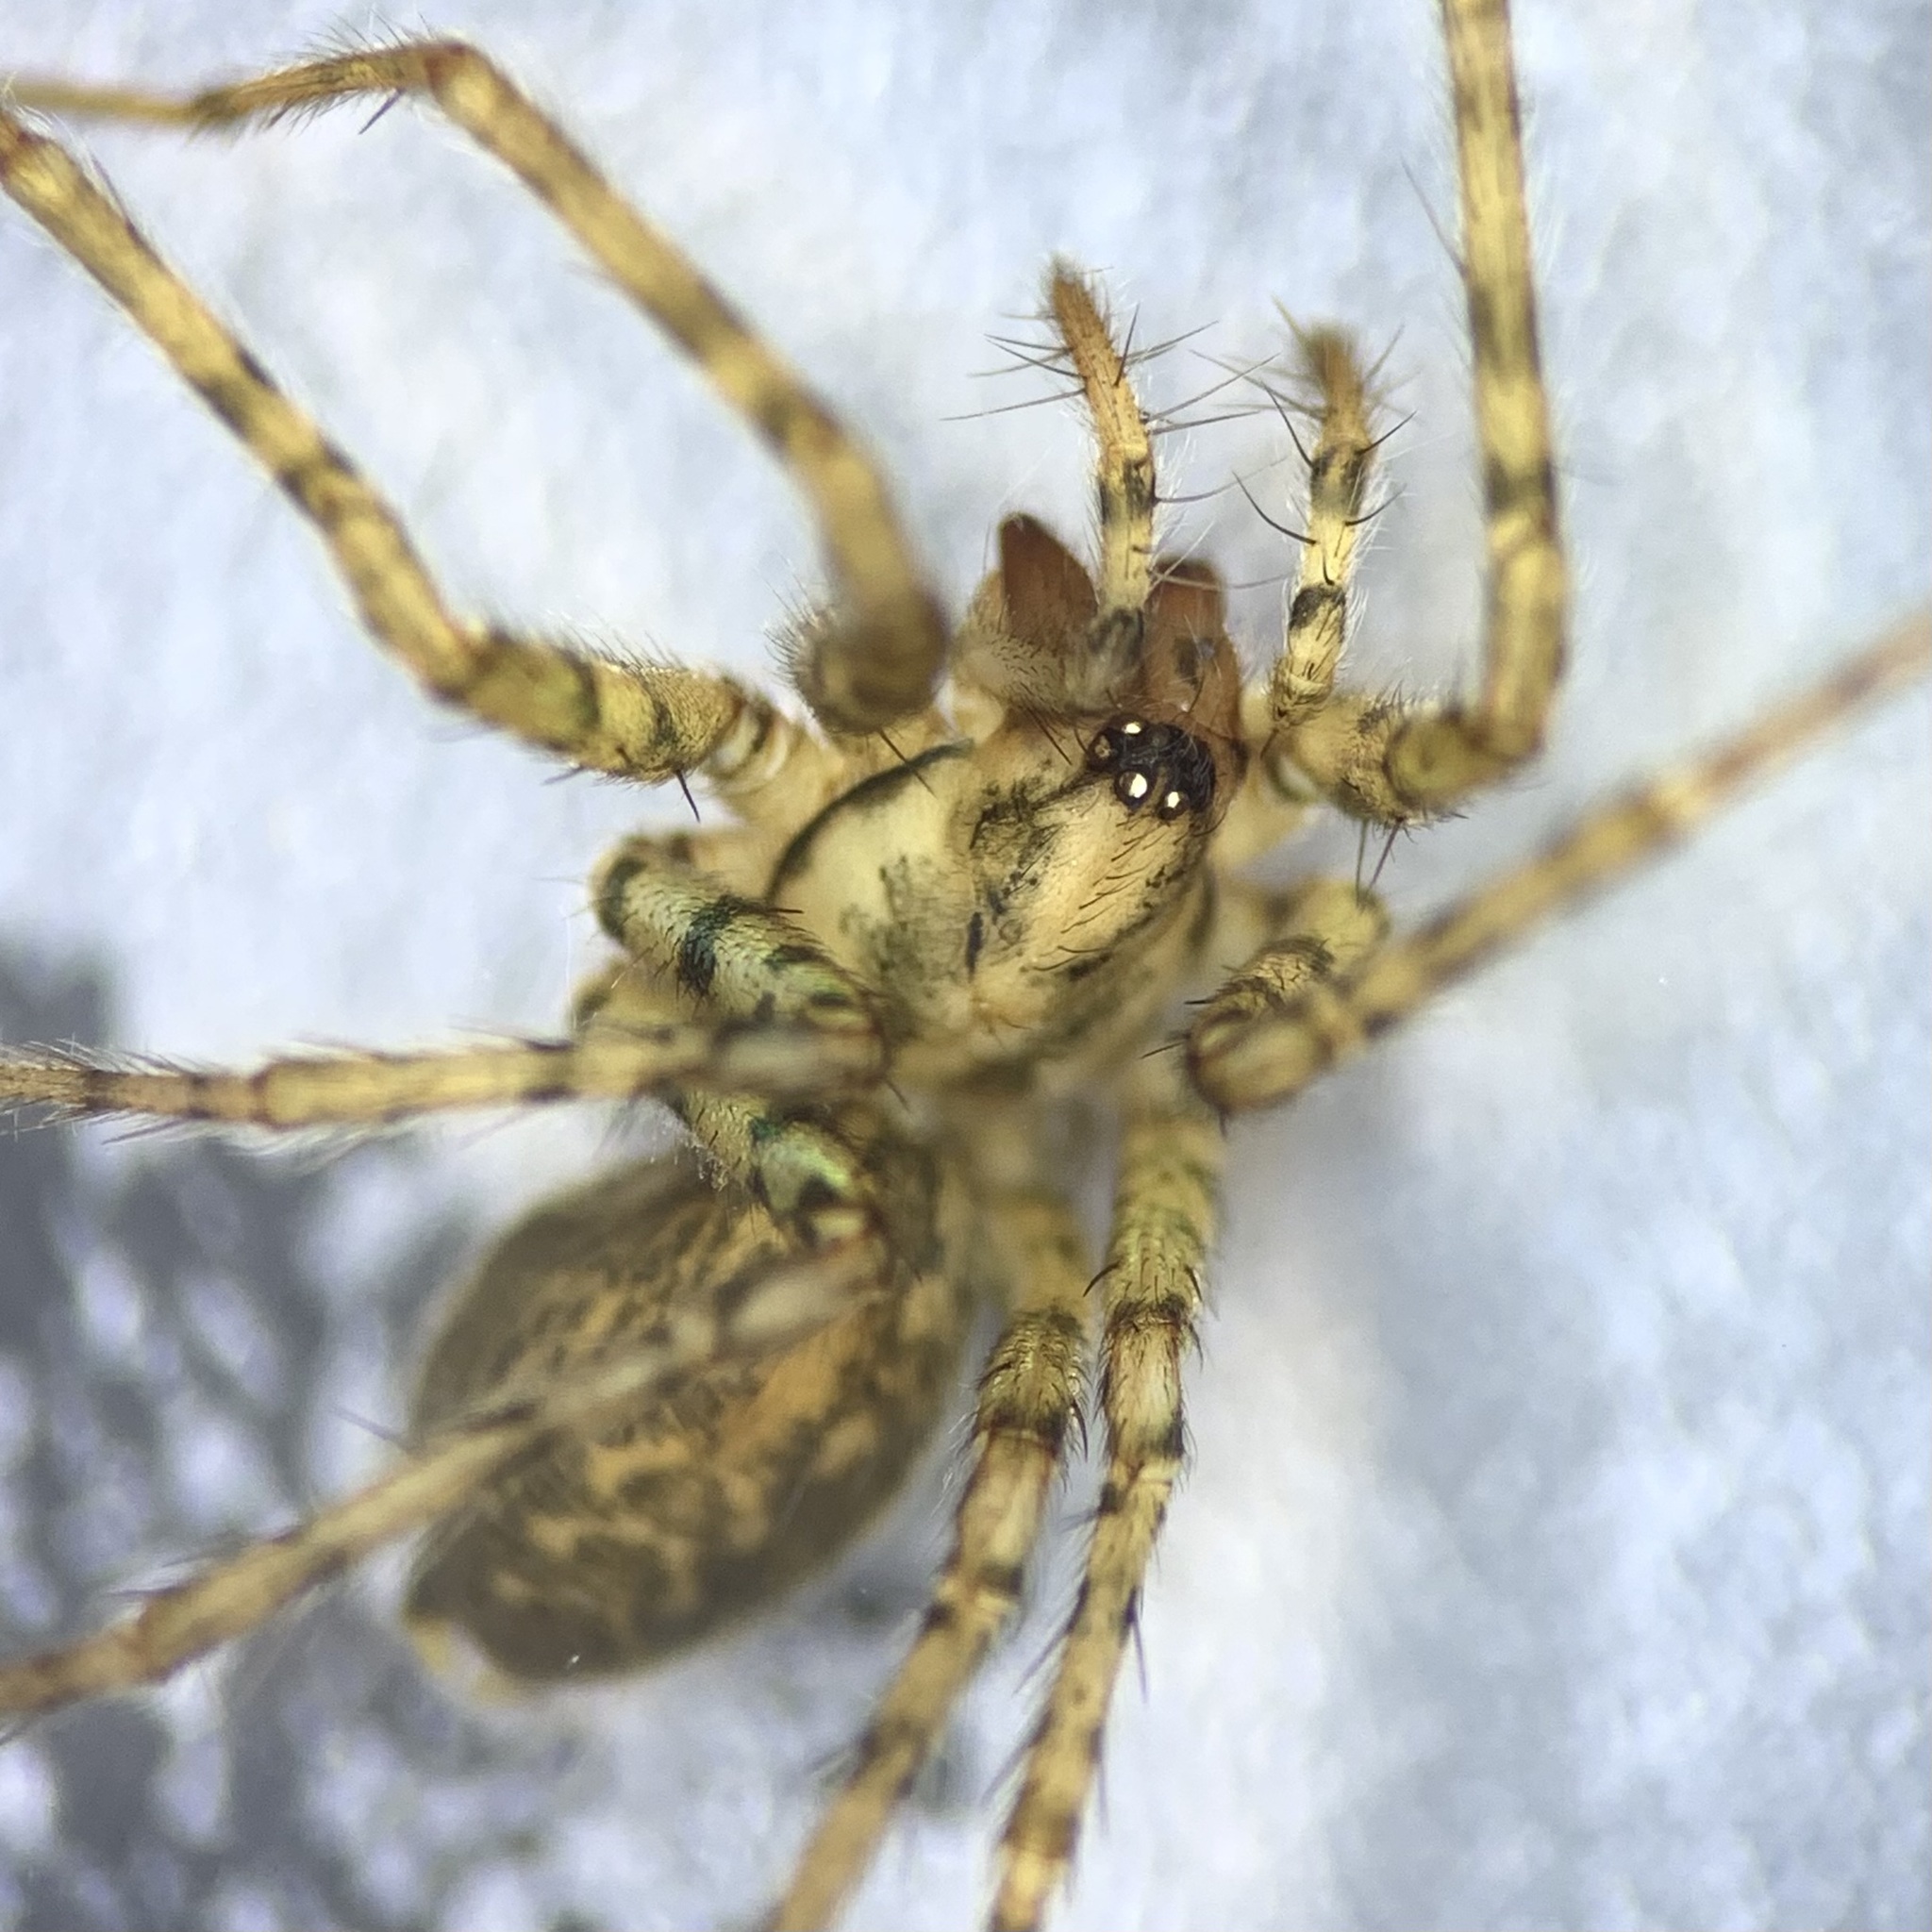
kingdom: Animalia
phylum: Arthropoda
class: Arachnida
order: Araneae
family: Agelenidae
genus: Tegenaria
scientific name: Tegenaria silvestris
